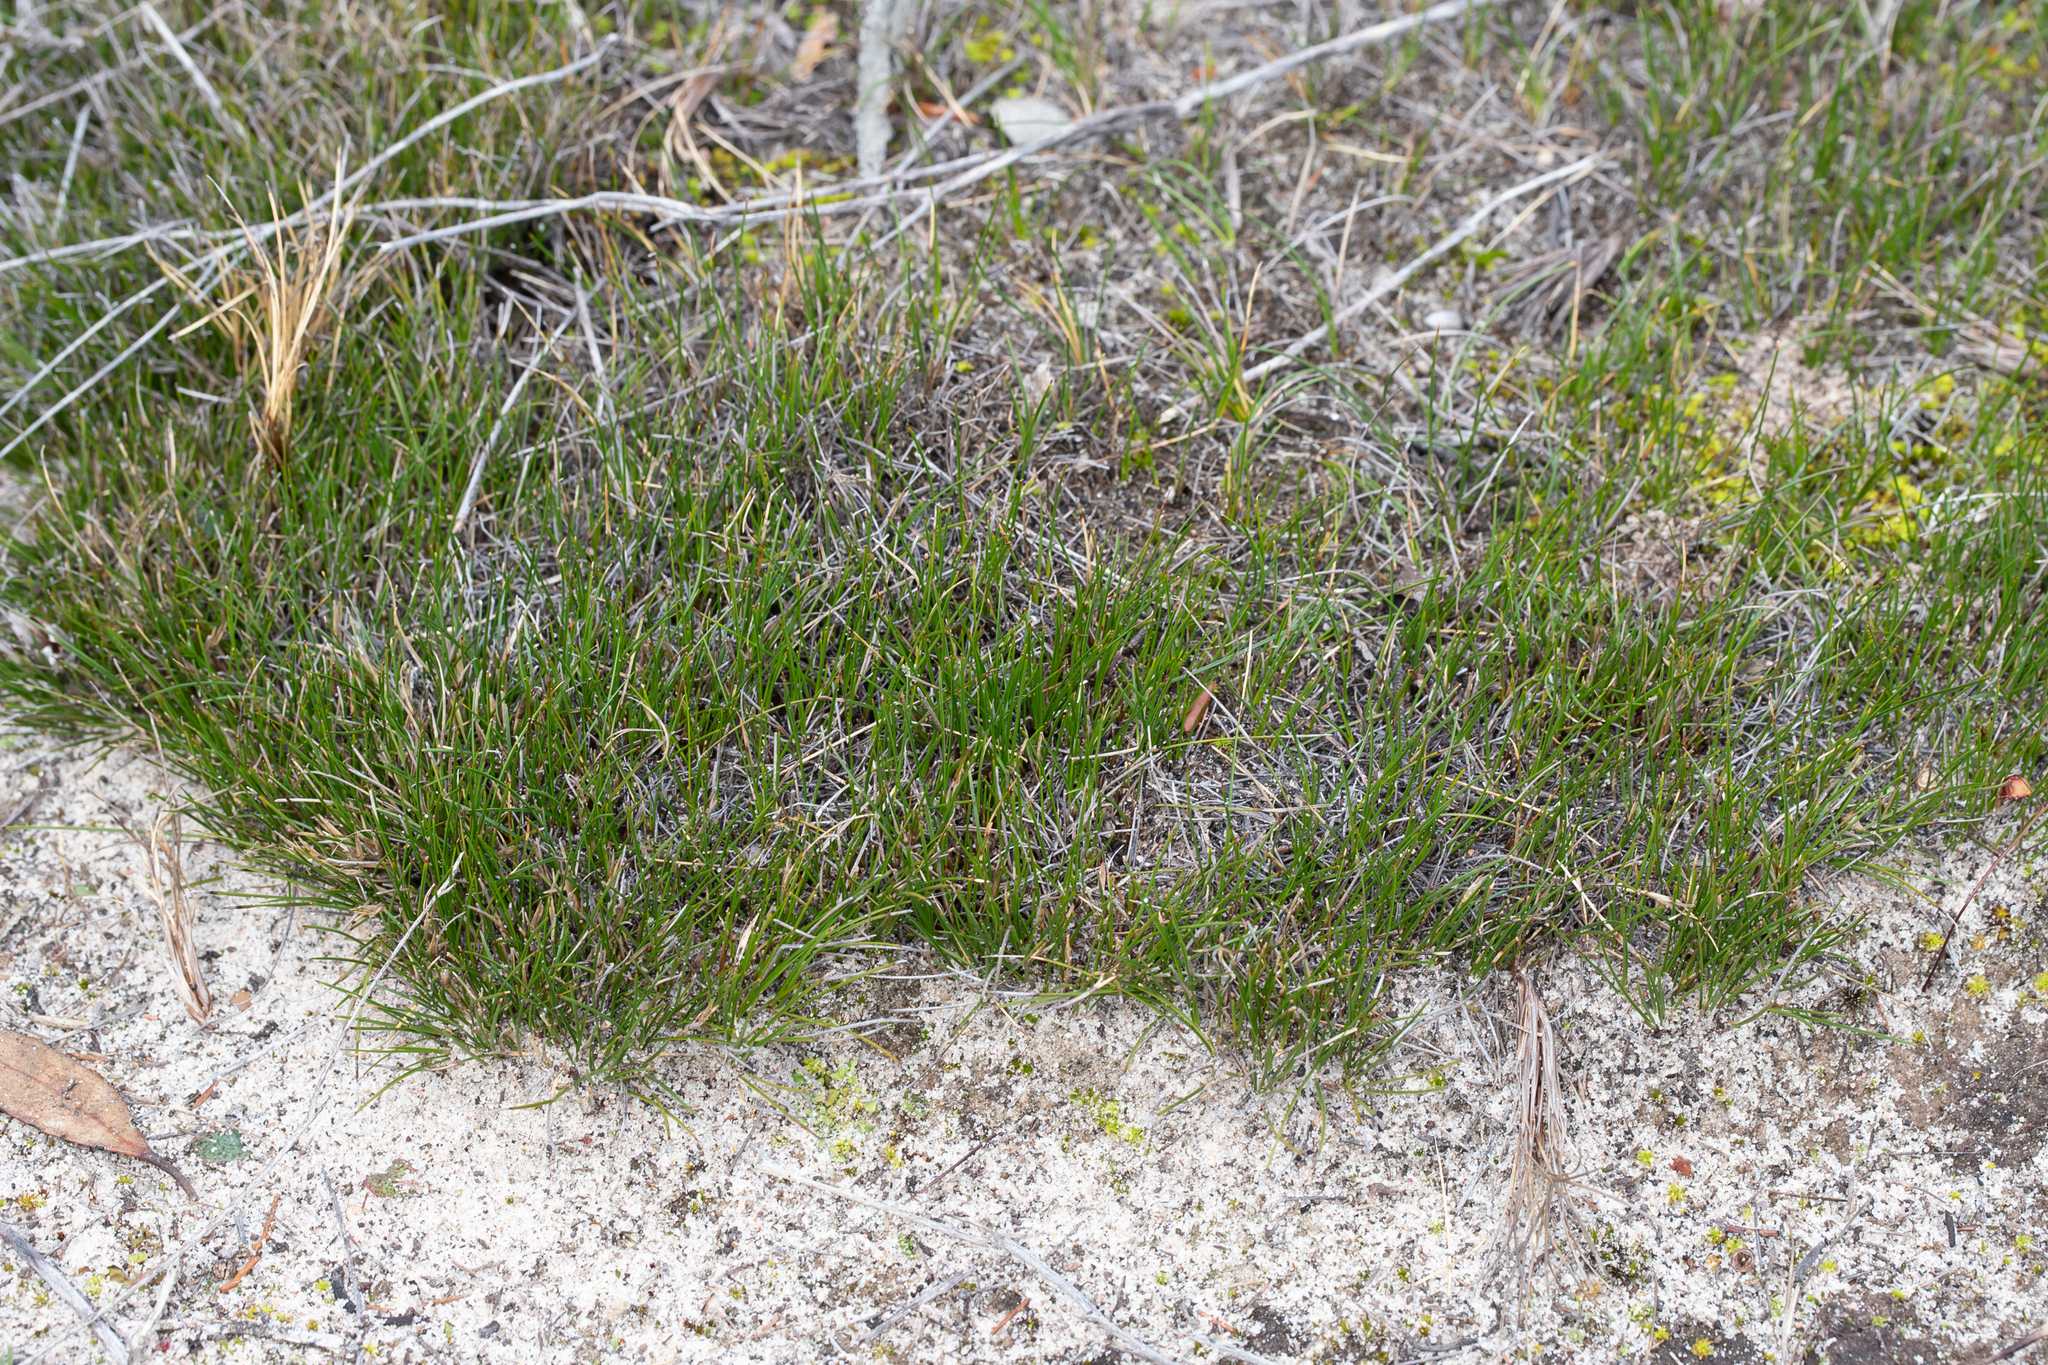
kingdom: Plantae
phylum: Tracheophyta
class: Liliopsida
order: Poales
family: Cyperaceae
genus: Schoenus
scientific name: Schoenus breviculmis
